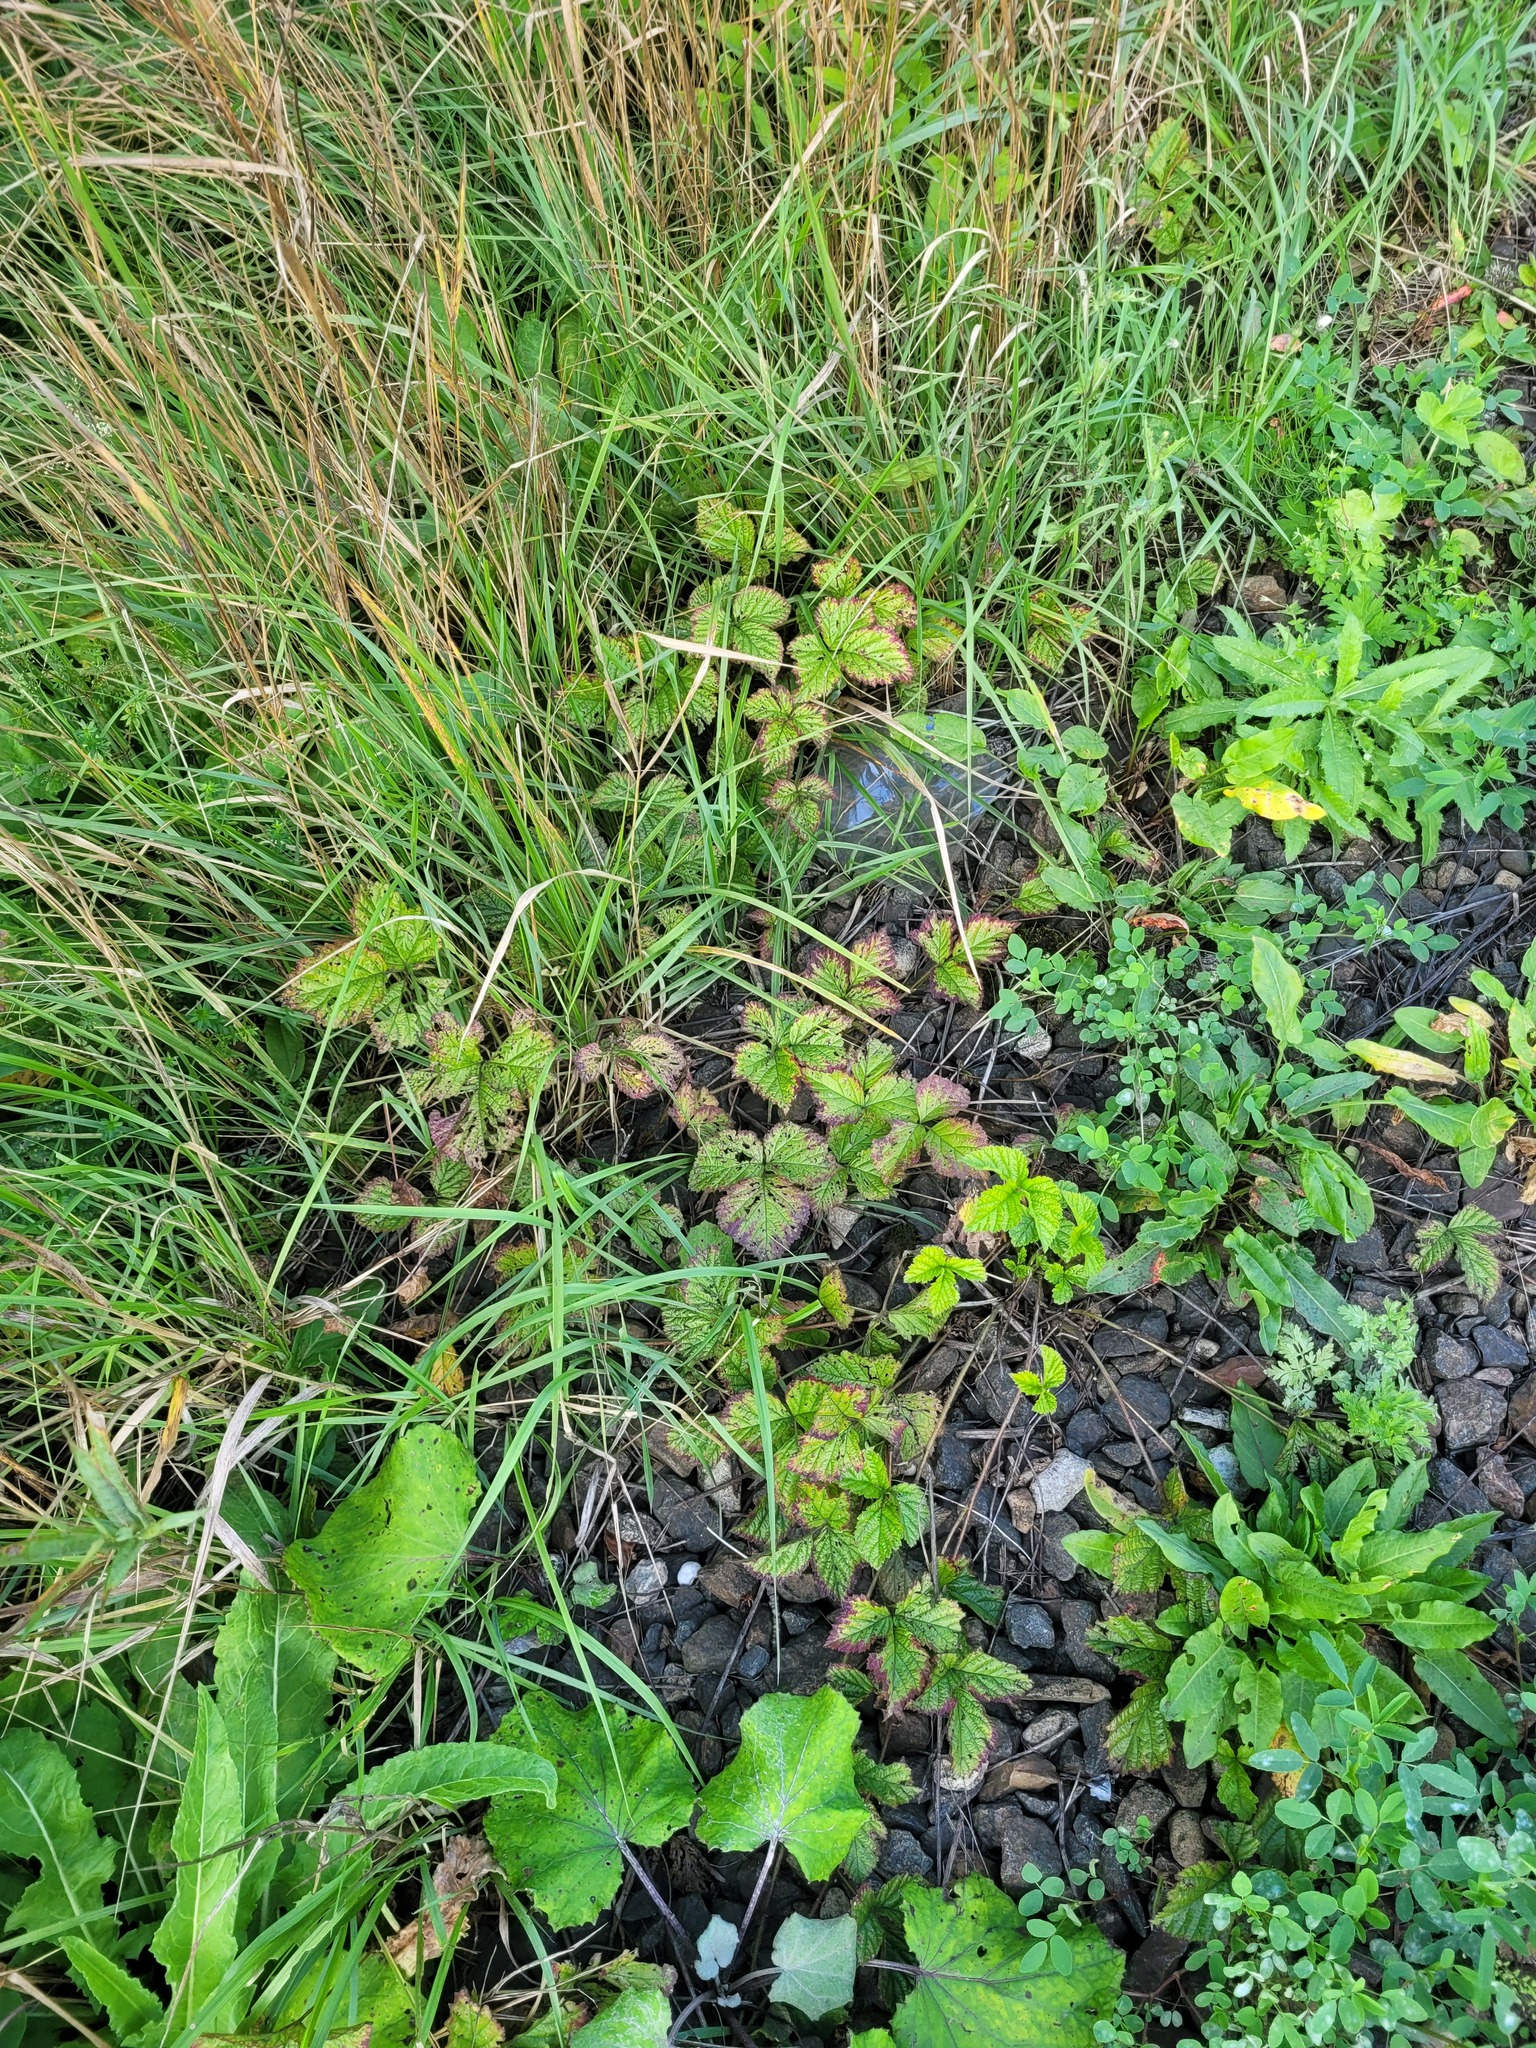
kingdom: Plantae
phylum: Tracheophyta
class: Magnoliopsida
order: Rosales
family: Rosaceae
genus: Rubus
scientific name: Rubus saxatilis
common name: Stone bramble
